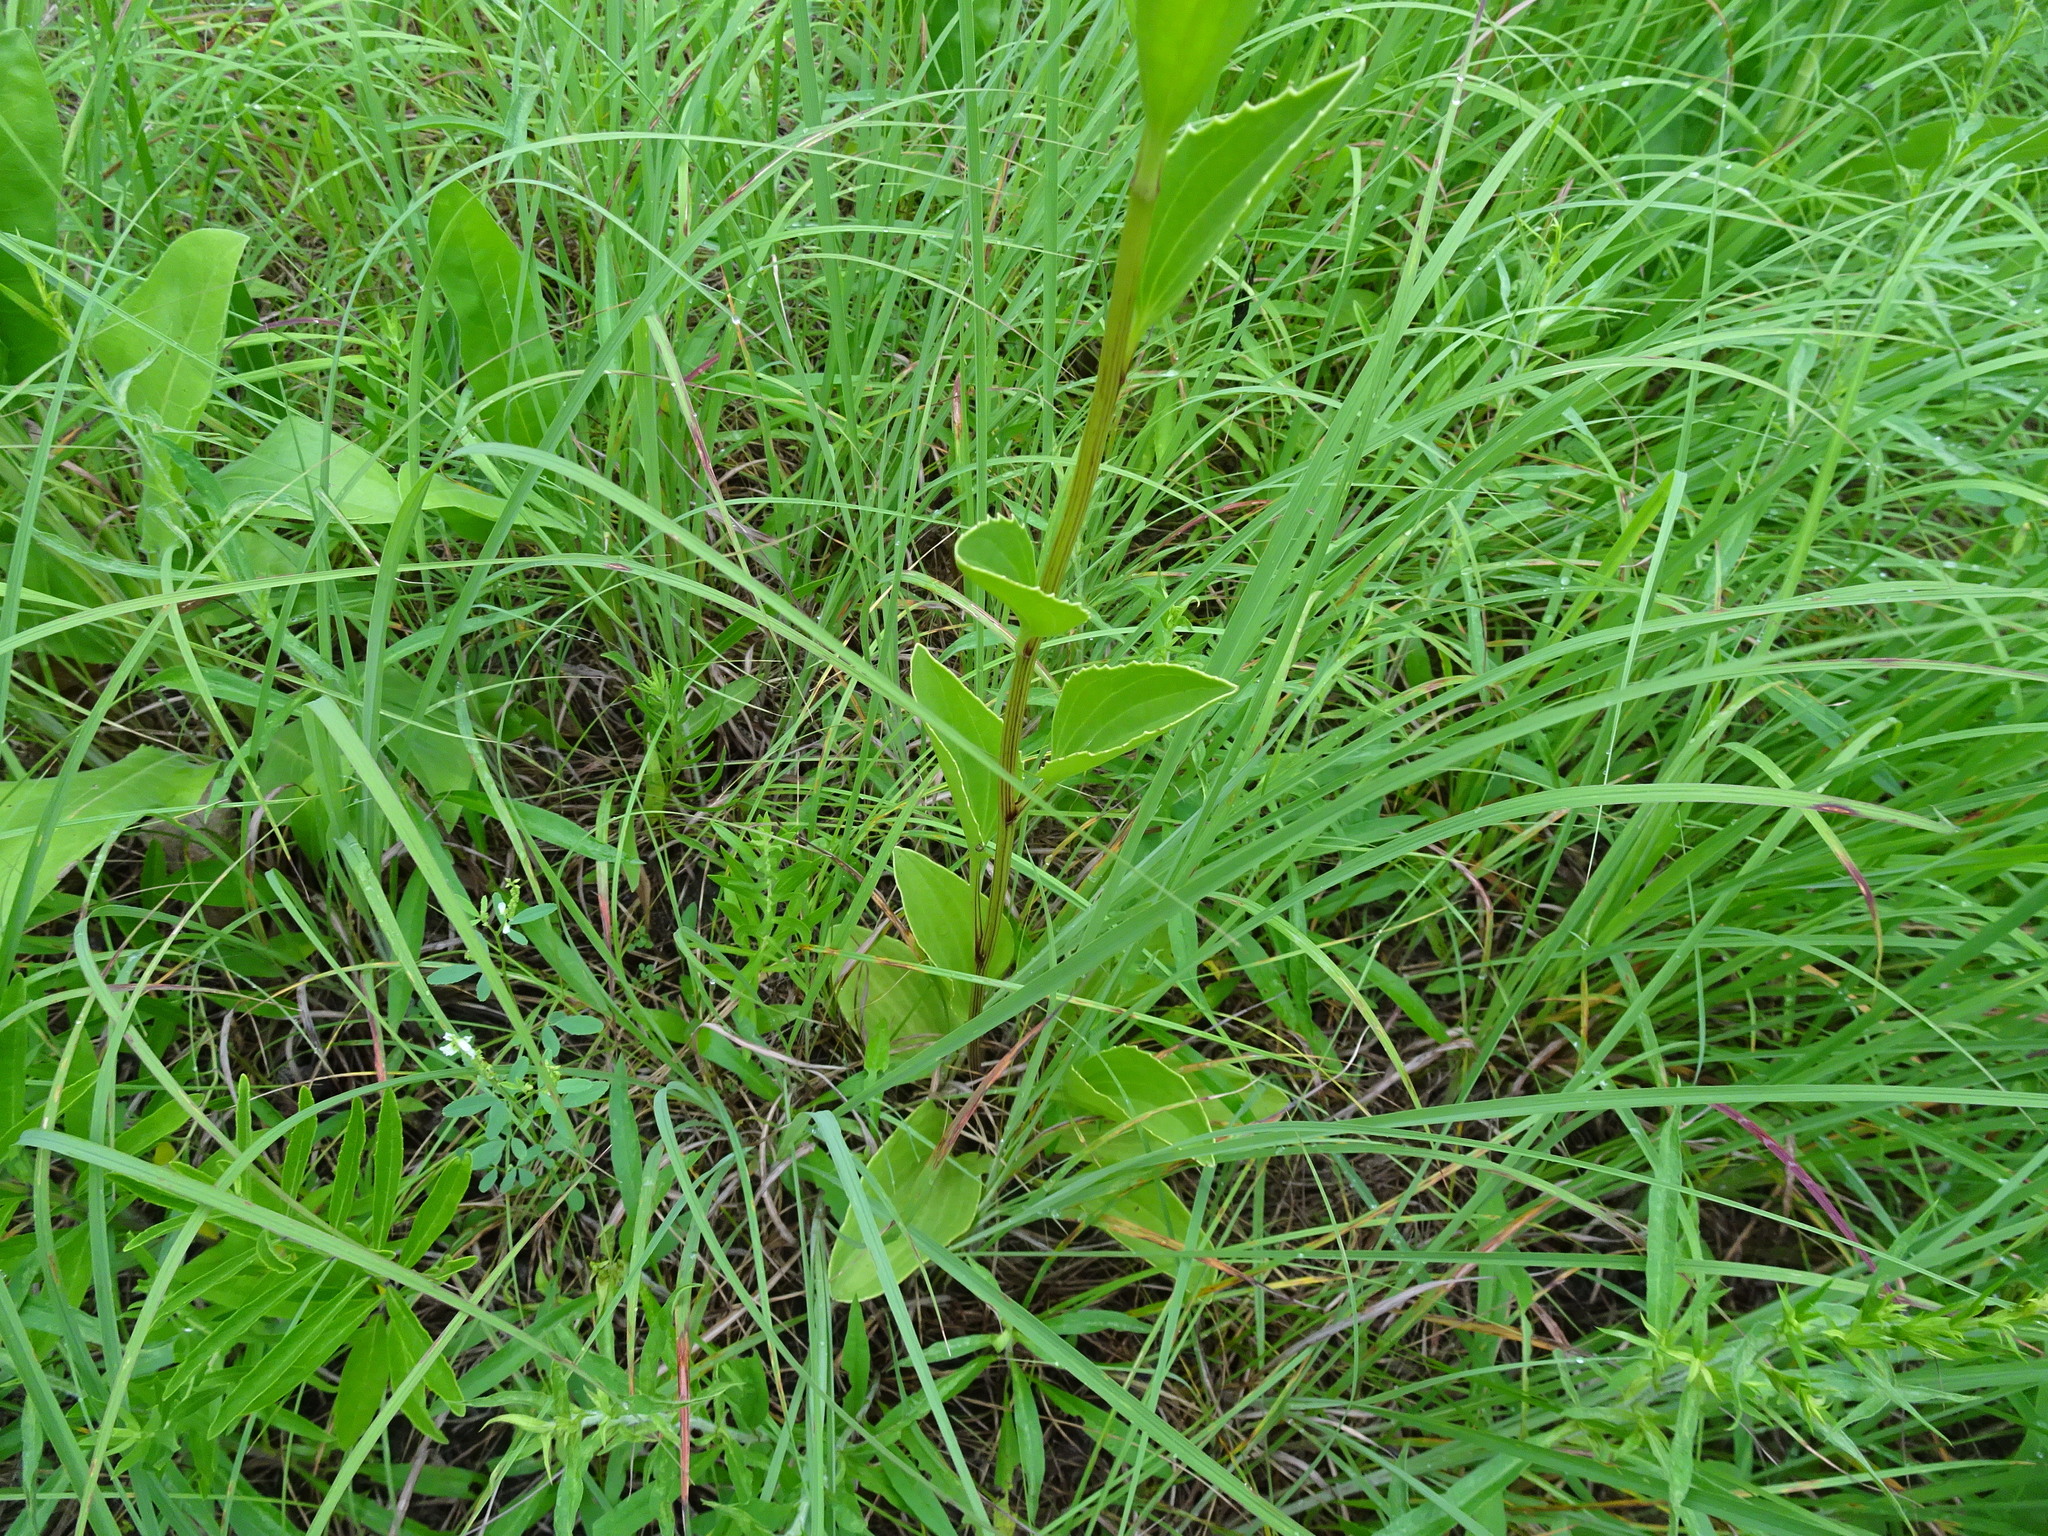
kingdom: Plantae
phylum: Tracheophyta
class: Magnoliopsida
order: Asterales
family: Asteraceae
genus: Arnoglossum
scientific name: Arnoglossum plantagineum
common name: Groove-stemmed indian-plantain
